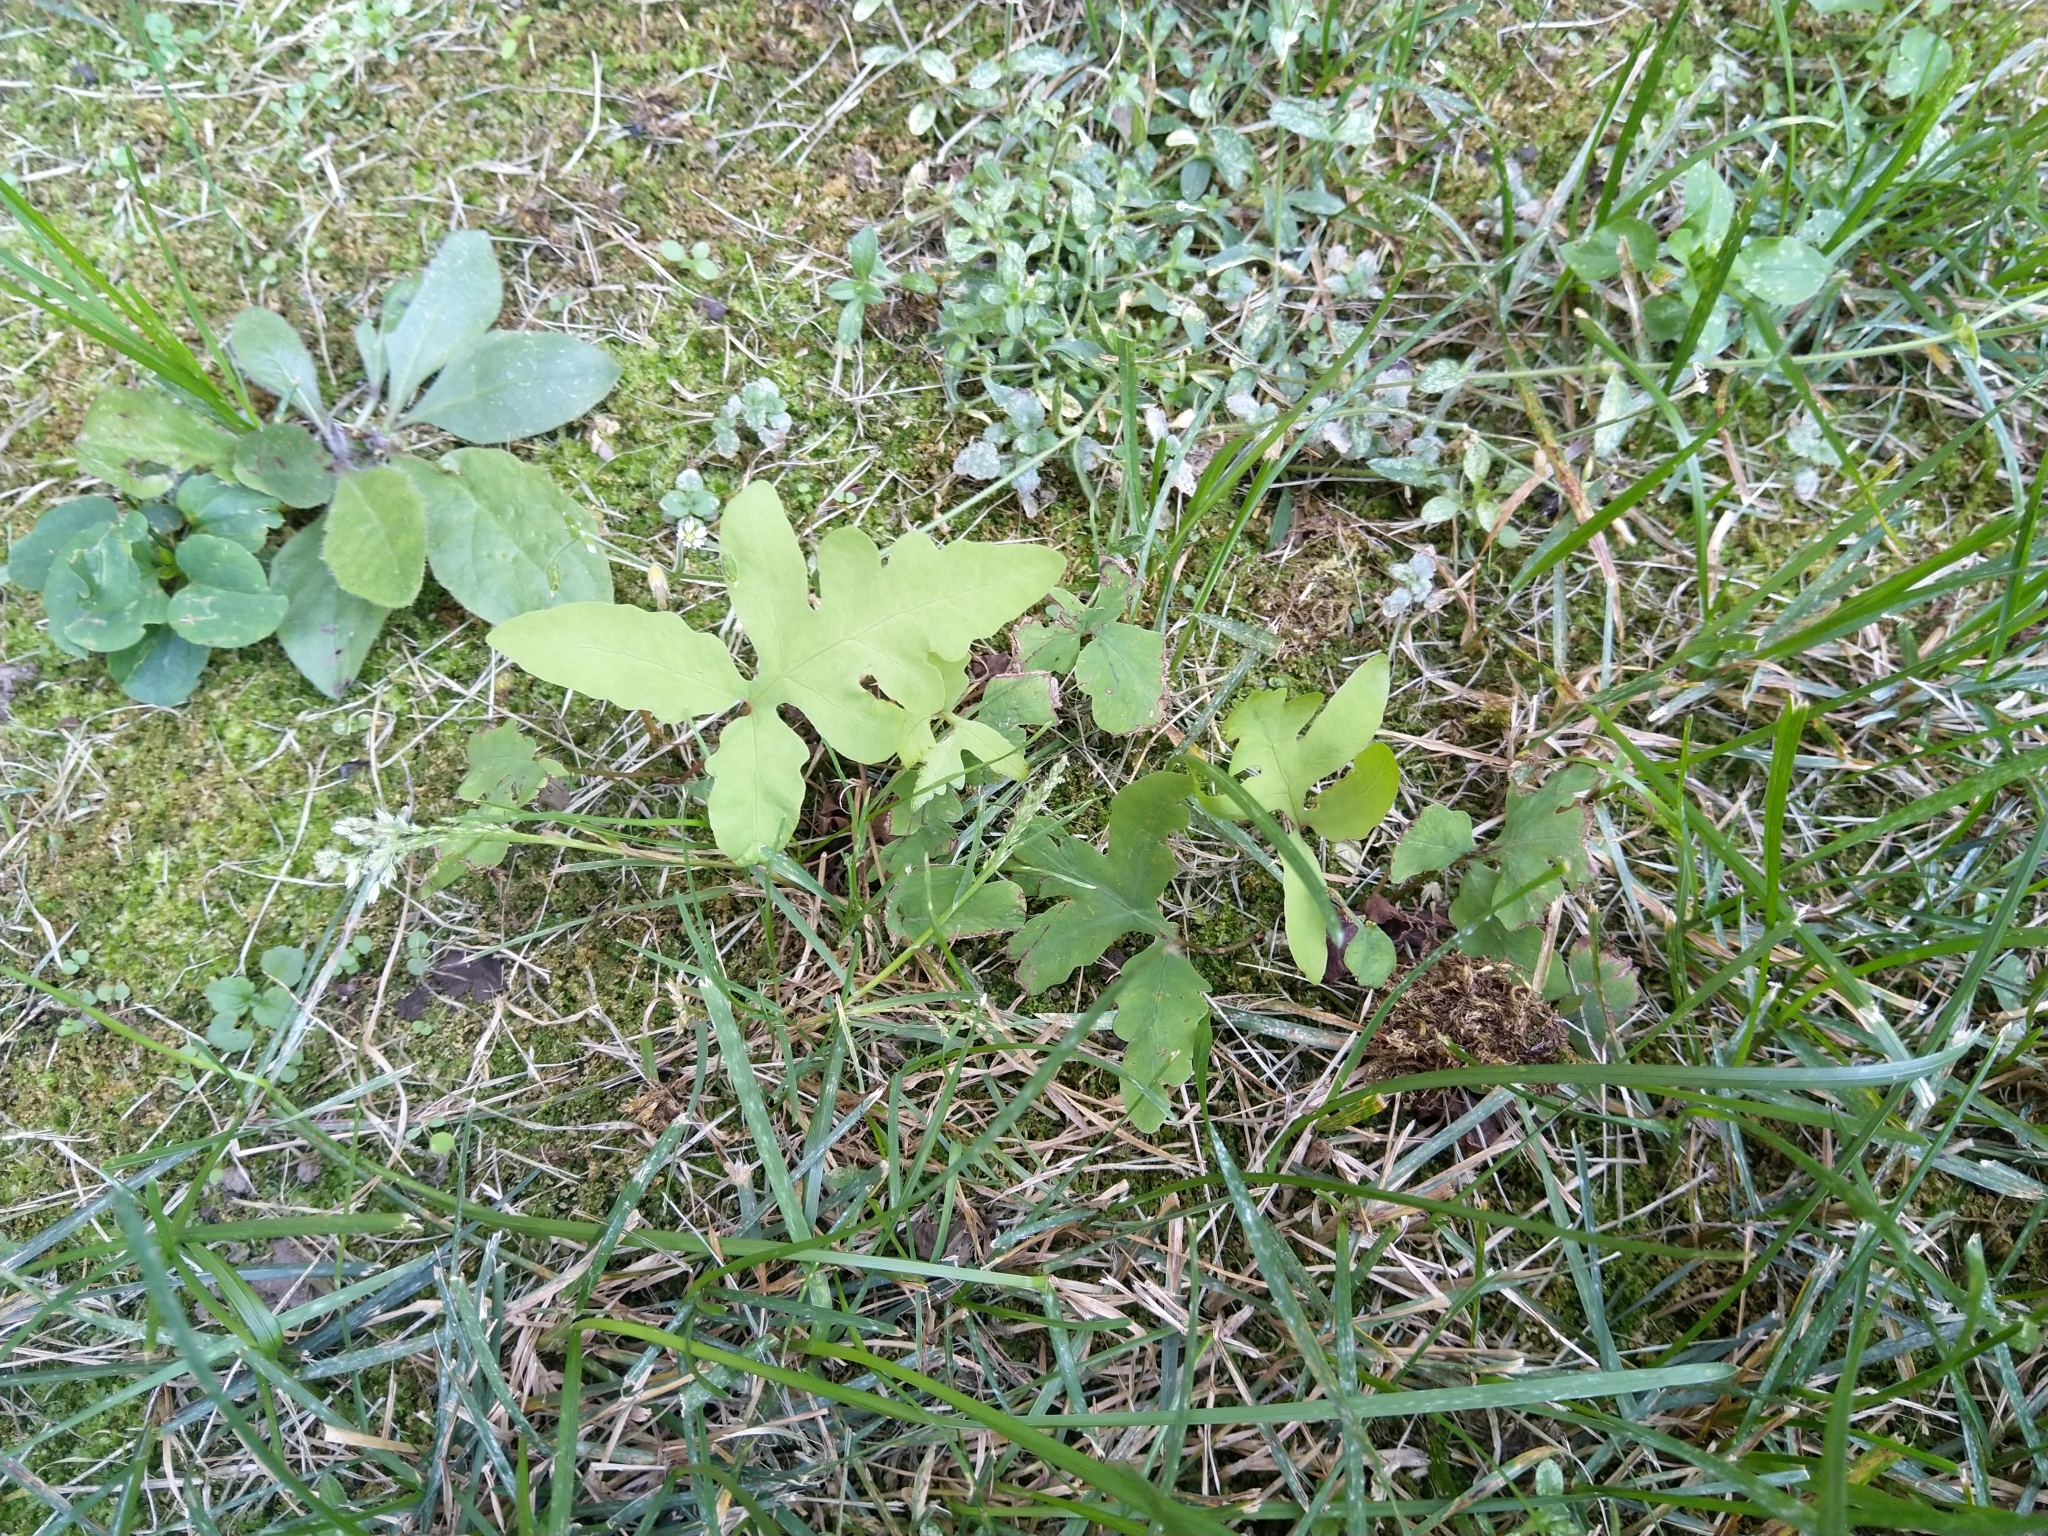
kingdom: Plantae
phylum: Tracheophyta
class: Polypodiopsida
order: Polypodiales
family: Onocleaceae
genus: Onoclea
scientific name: Onoclea sensibilis
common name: Sensitive fern
